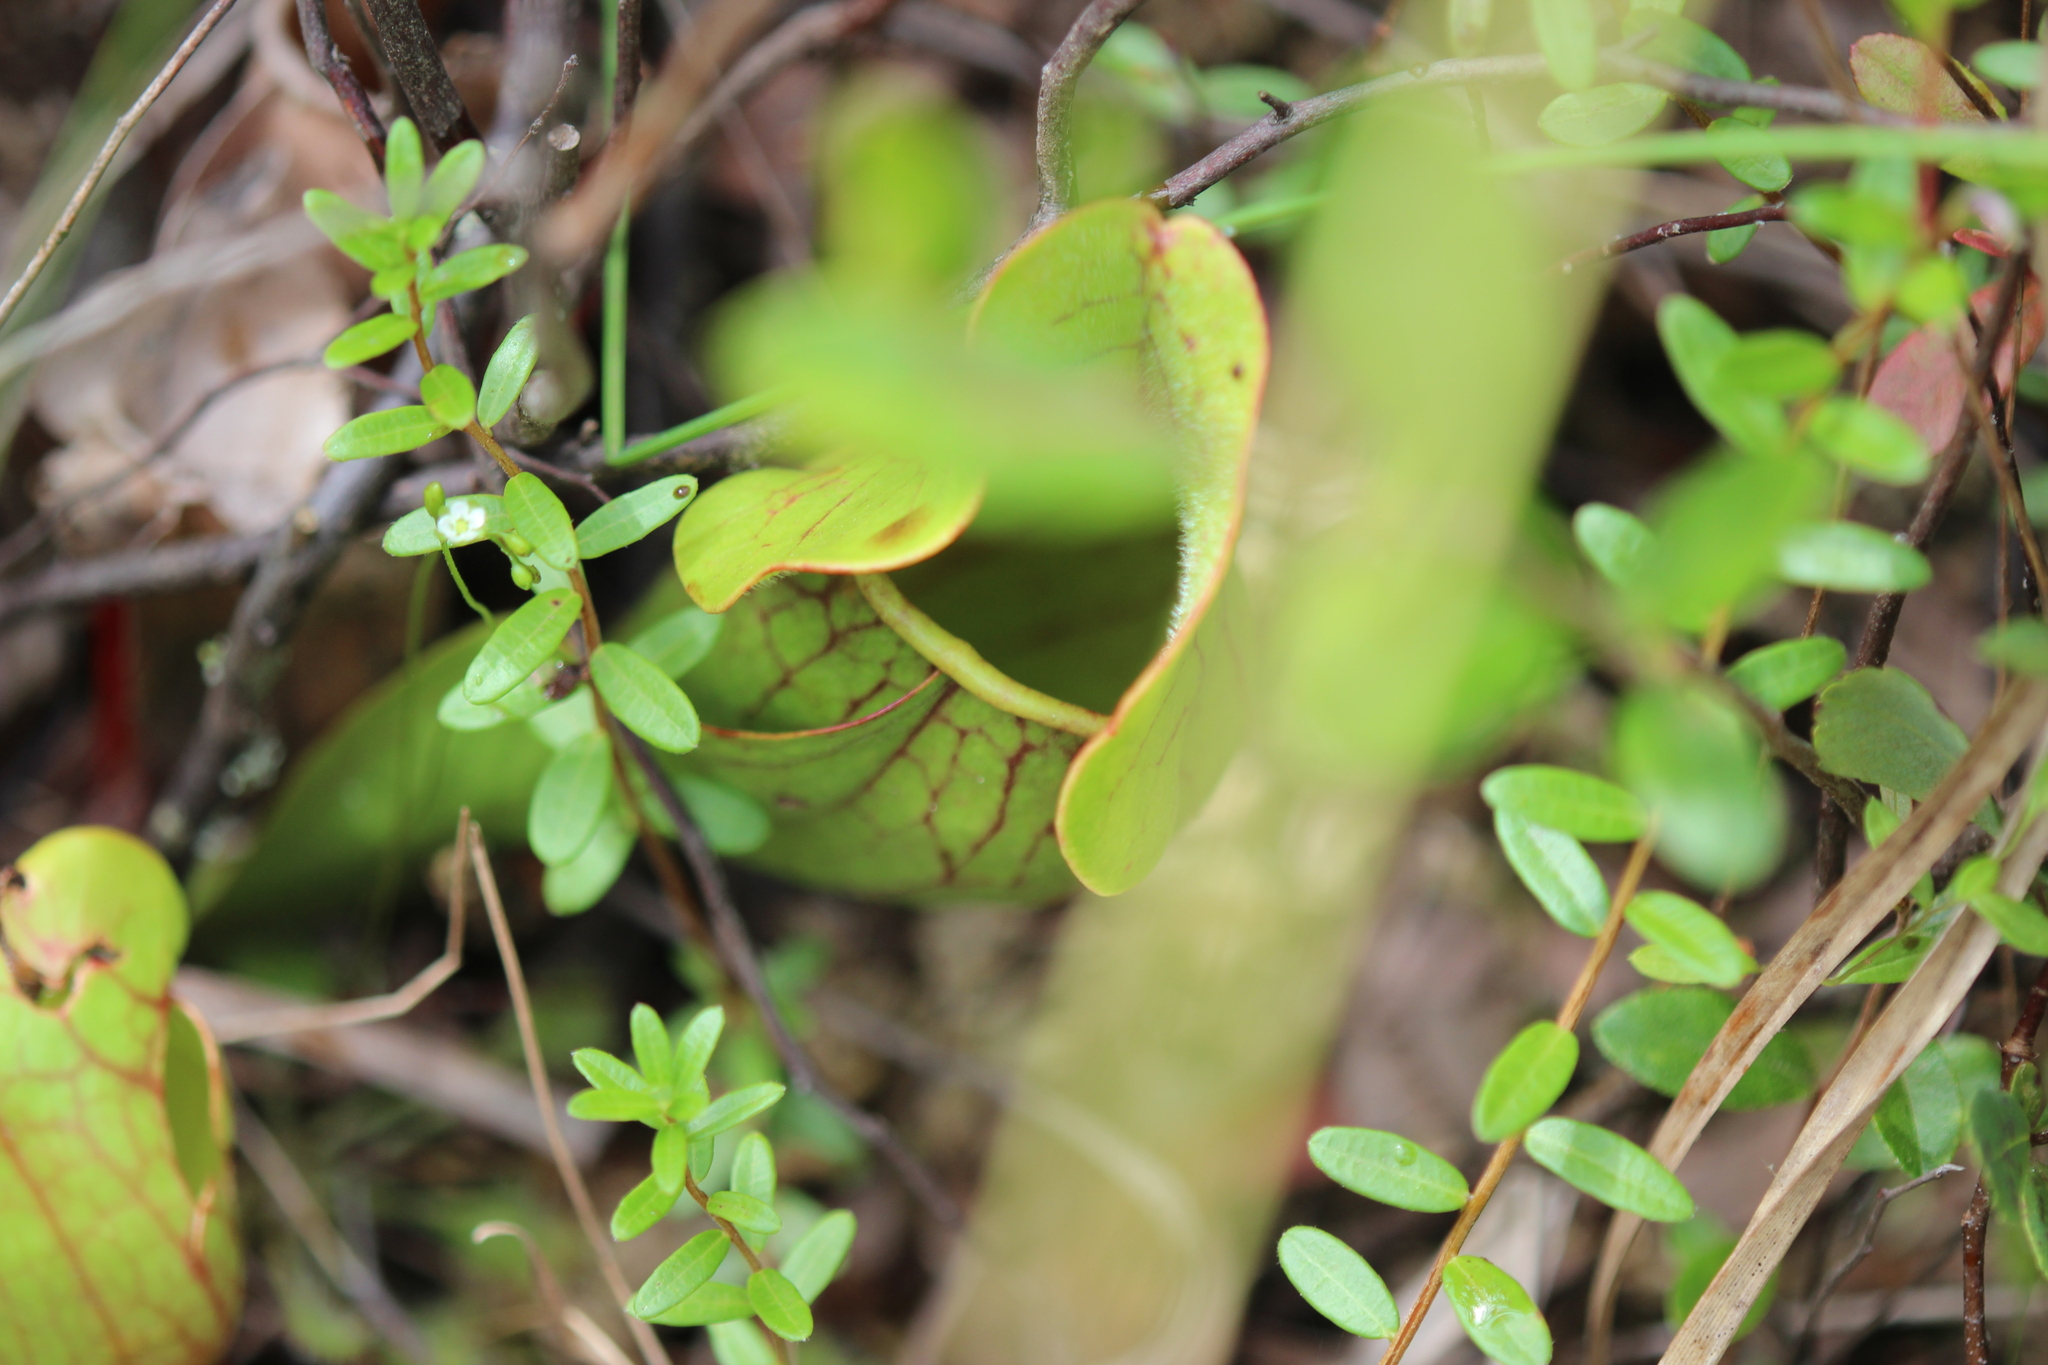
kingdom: Plantae
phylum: Tracheophyta
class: Magnoliopsida
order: Ericales
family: Sarraceniaceae
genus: Sarracenia
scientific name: Sarracenia purpurea
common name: Pitcherplant
